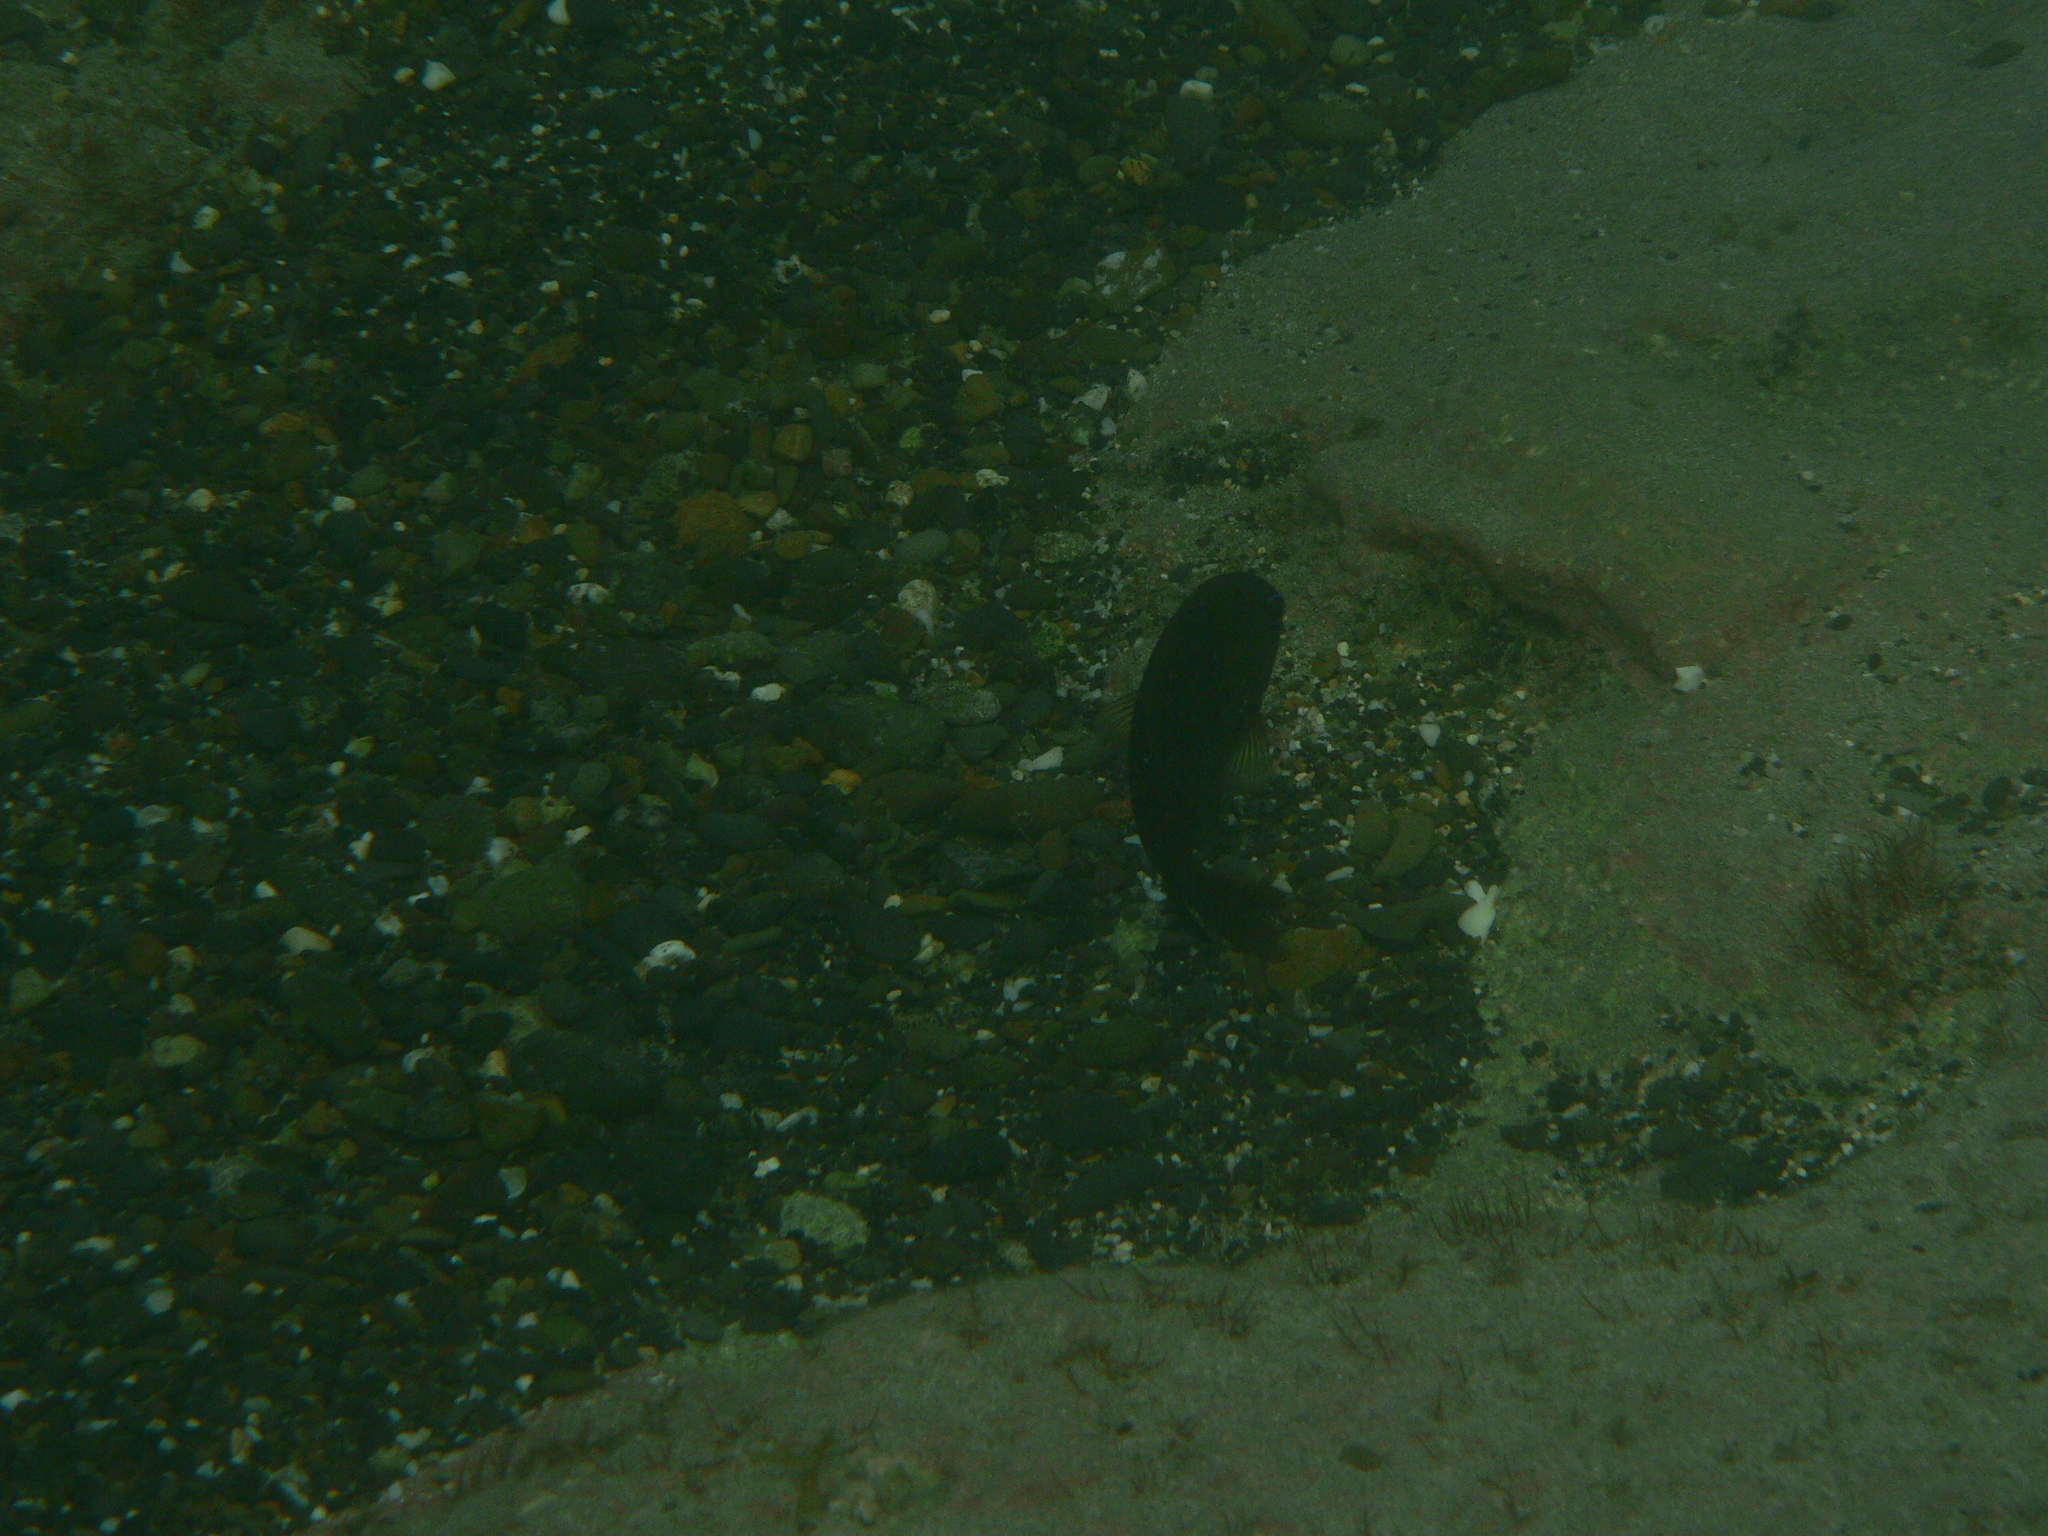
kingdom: Animalia
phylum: Chordata
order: Perciformes
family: Pomacentridae
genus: Stegastes
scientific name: Stegastes imbricatus
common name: Cape verde gregory
